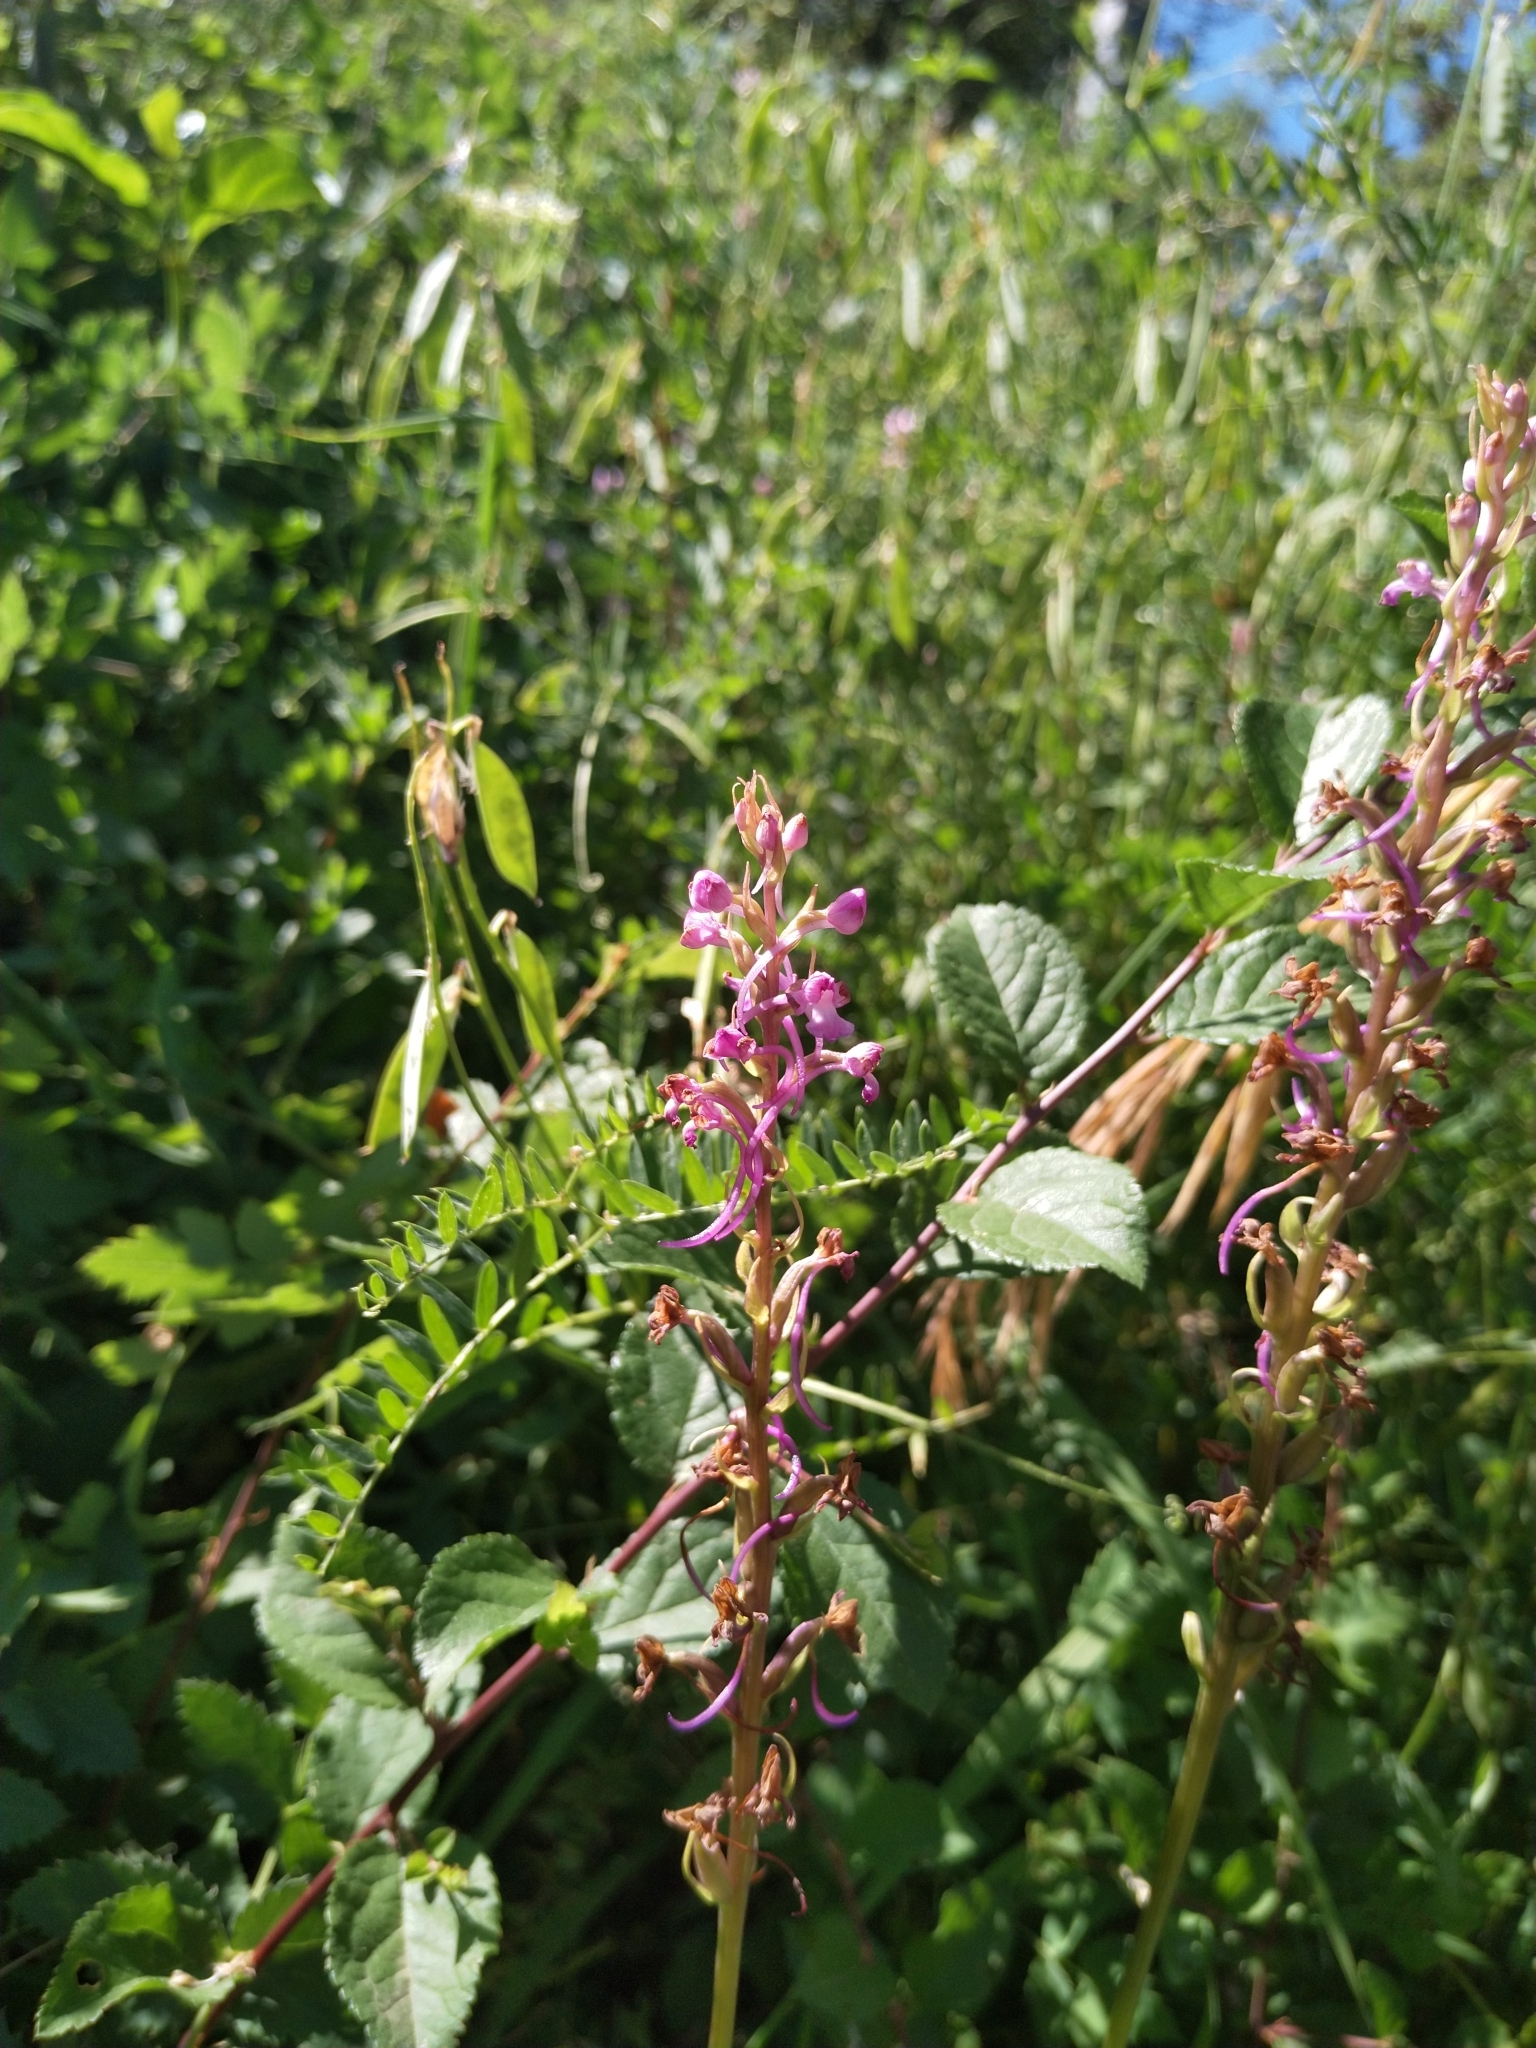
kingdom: Plantae
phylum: Tracheophyta
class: Liliopsida
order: Asparagales
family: Orchidaceae
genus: Gymnadenia
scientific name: Gymnadenia conopsea
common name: Fragrant orchid
